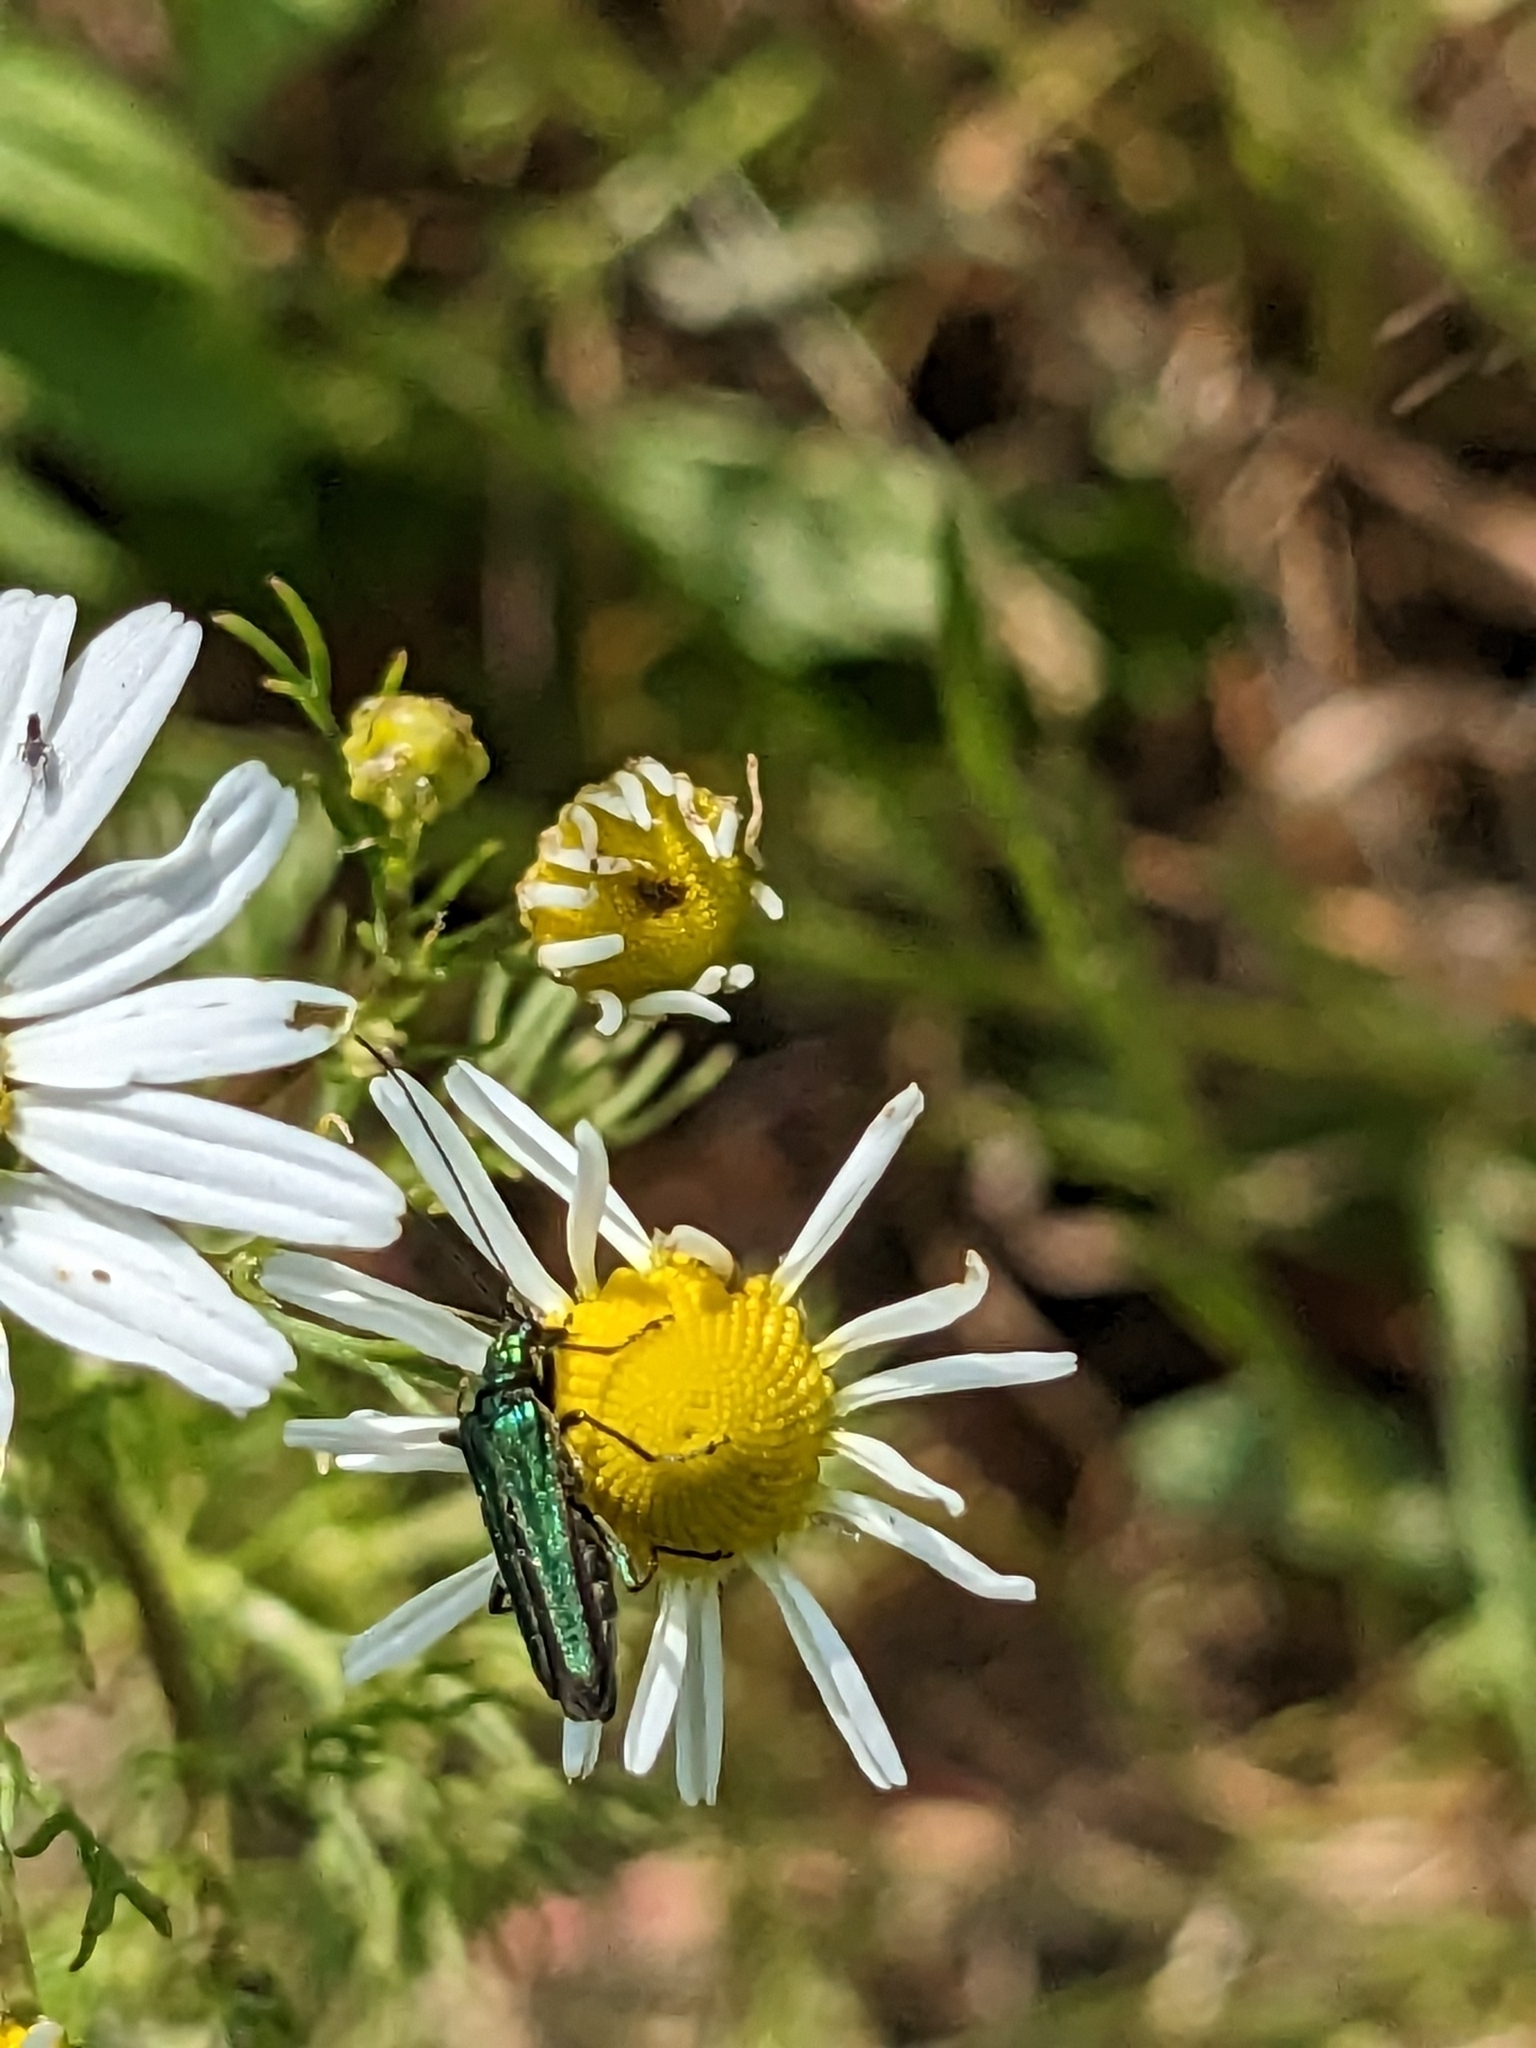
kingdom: Animalia
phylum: Arthropoda
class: Insecta
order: Coleoptera
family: Oedemeridae
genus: Oedemera
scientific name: Oedemera nobilis
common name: Swollen-thighed beetle
